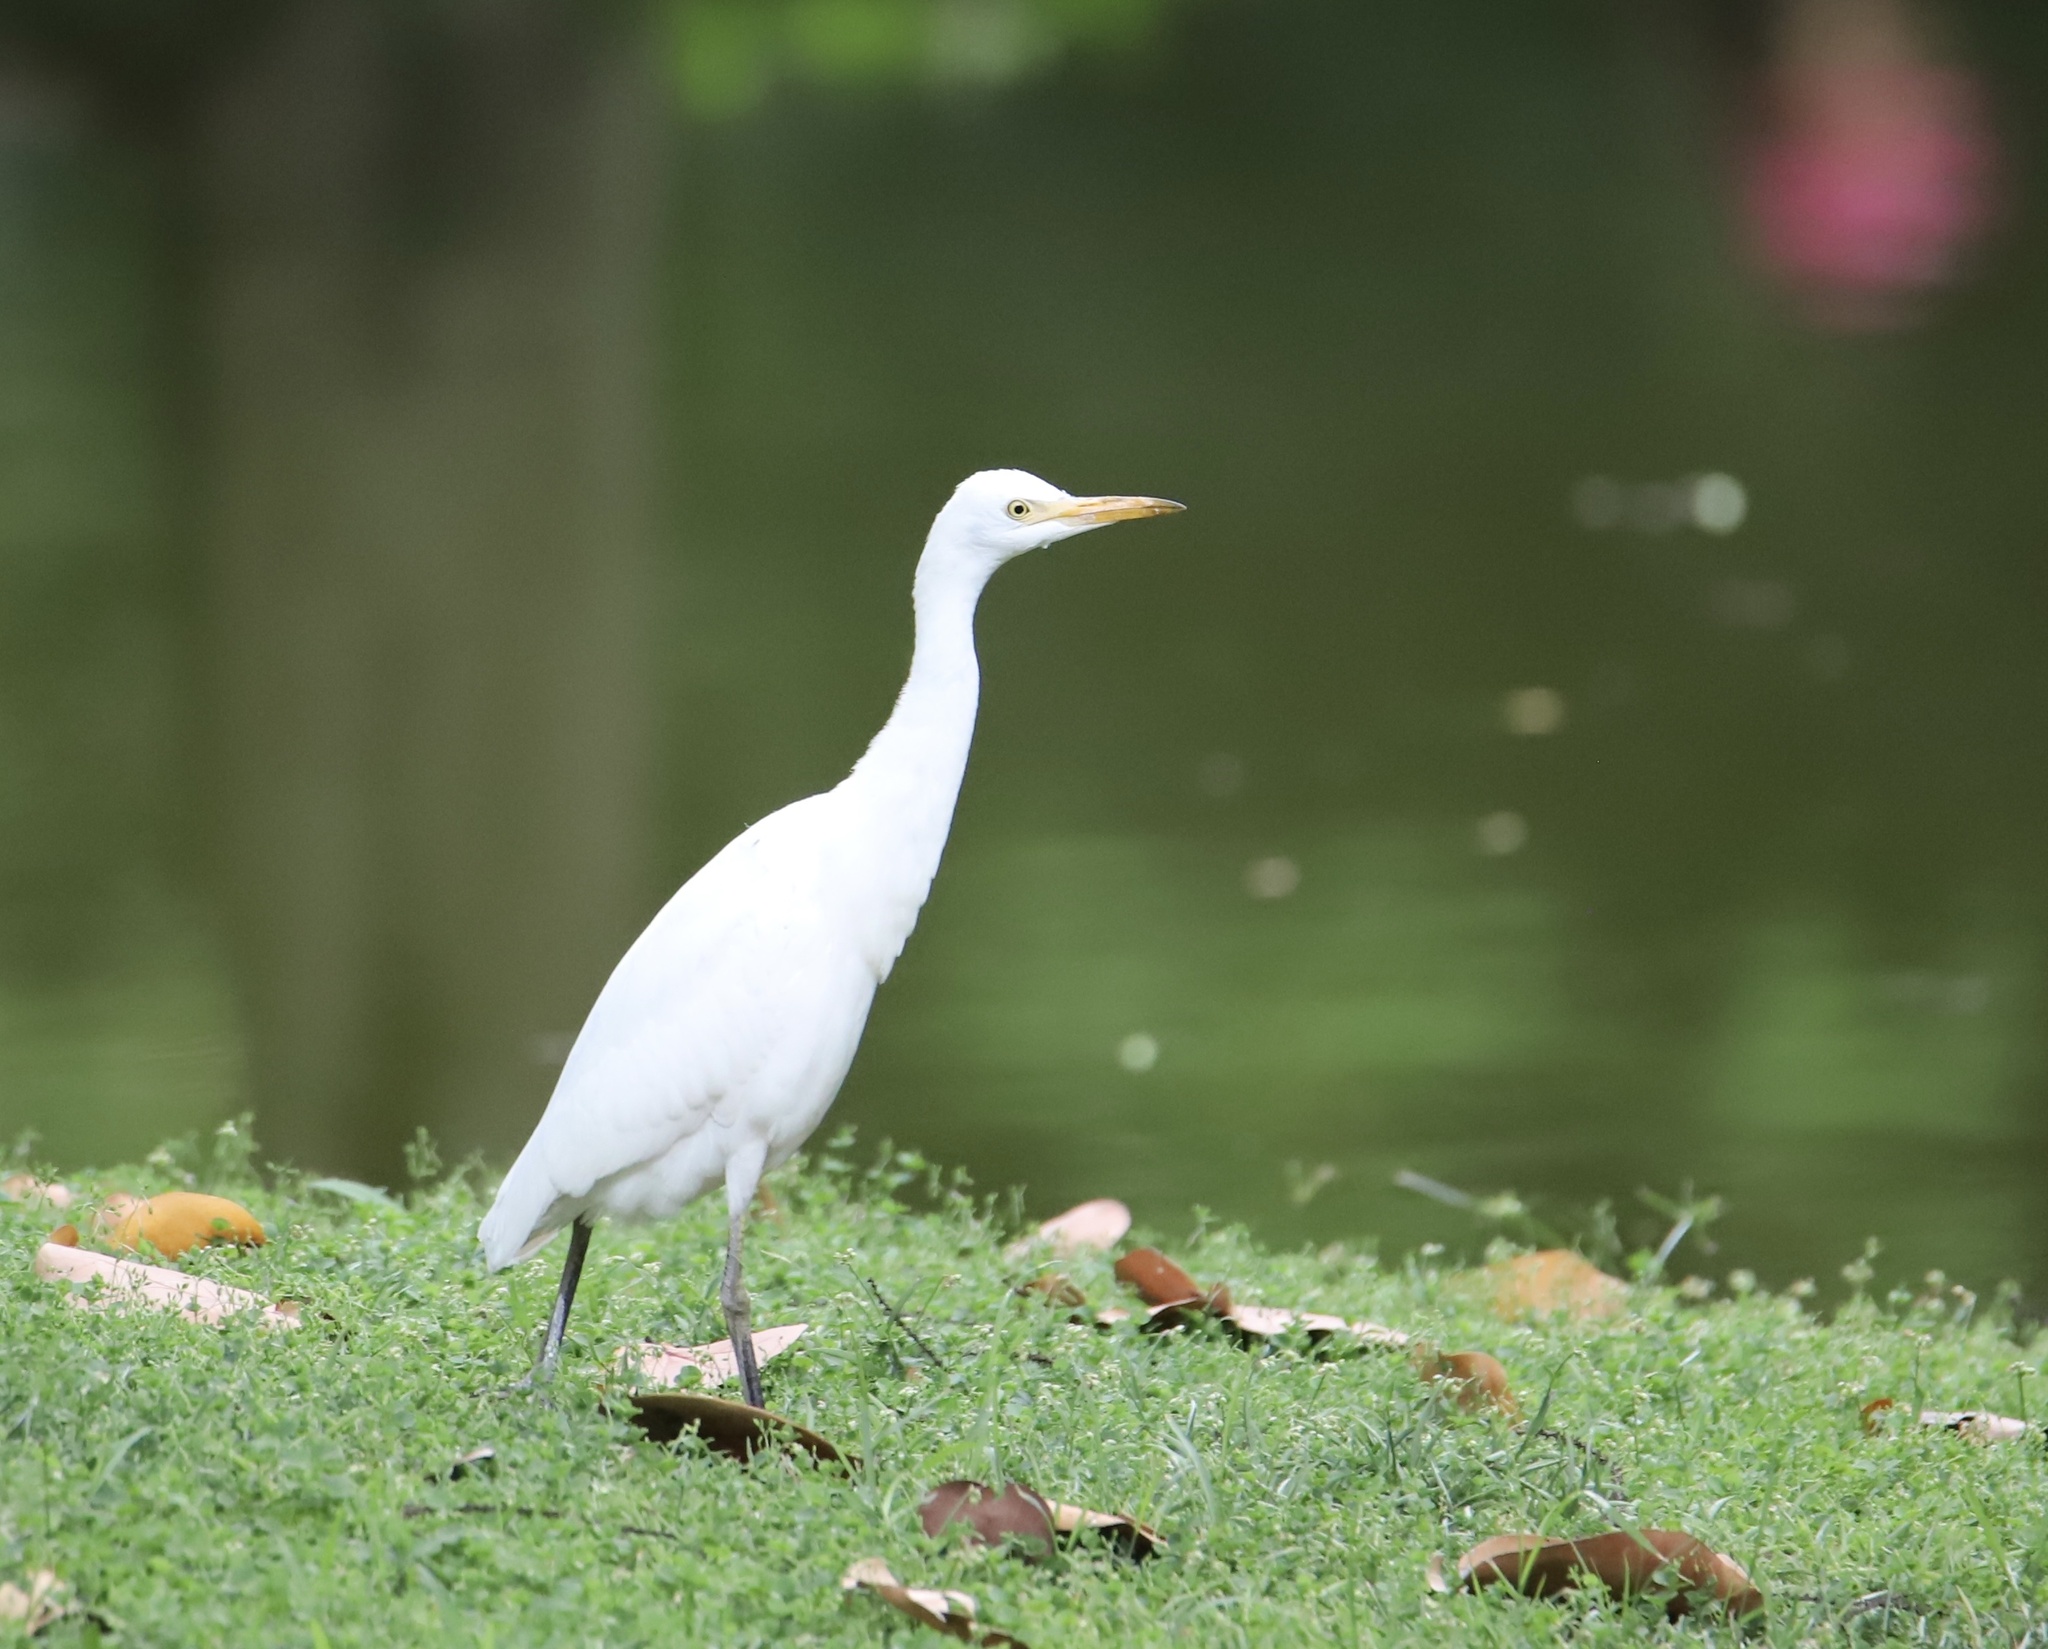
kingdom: Animalia
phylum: Chordata
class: Aves
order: Pelecaniformes
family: Ardeidae
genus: Bubulcus
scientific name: Bubulcus ibis
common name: Cattle egret
